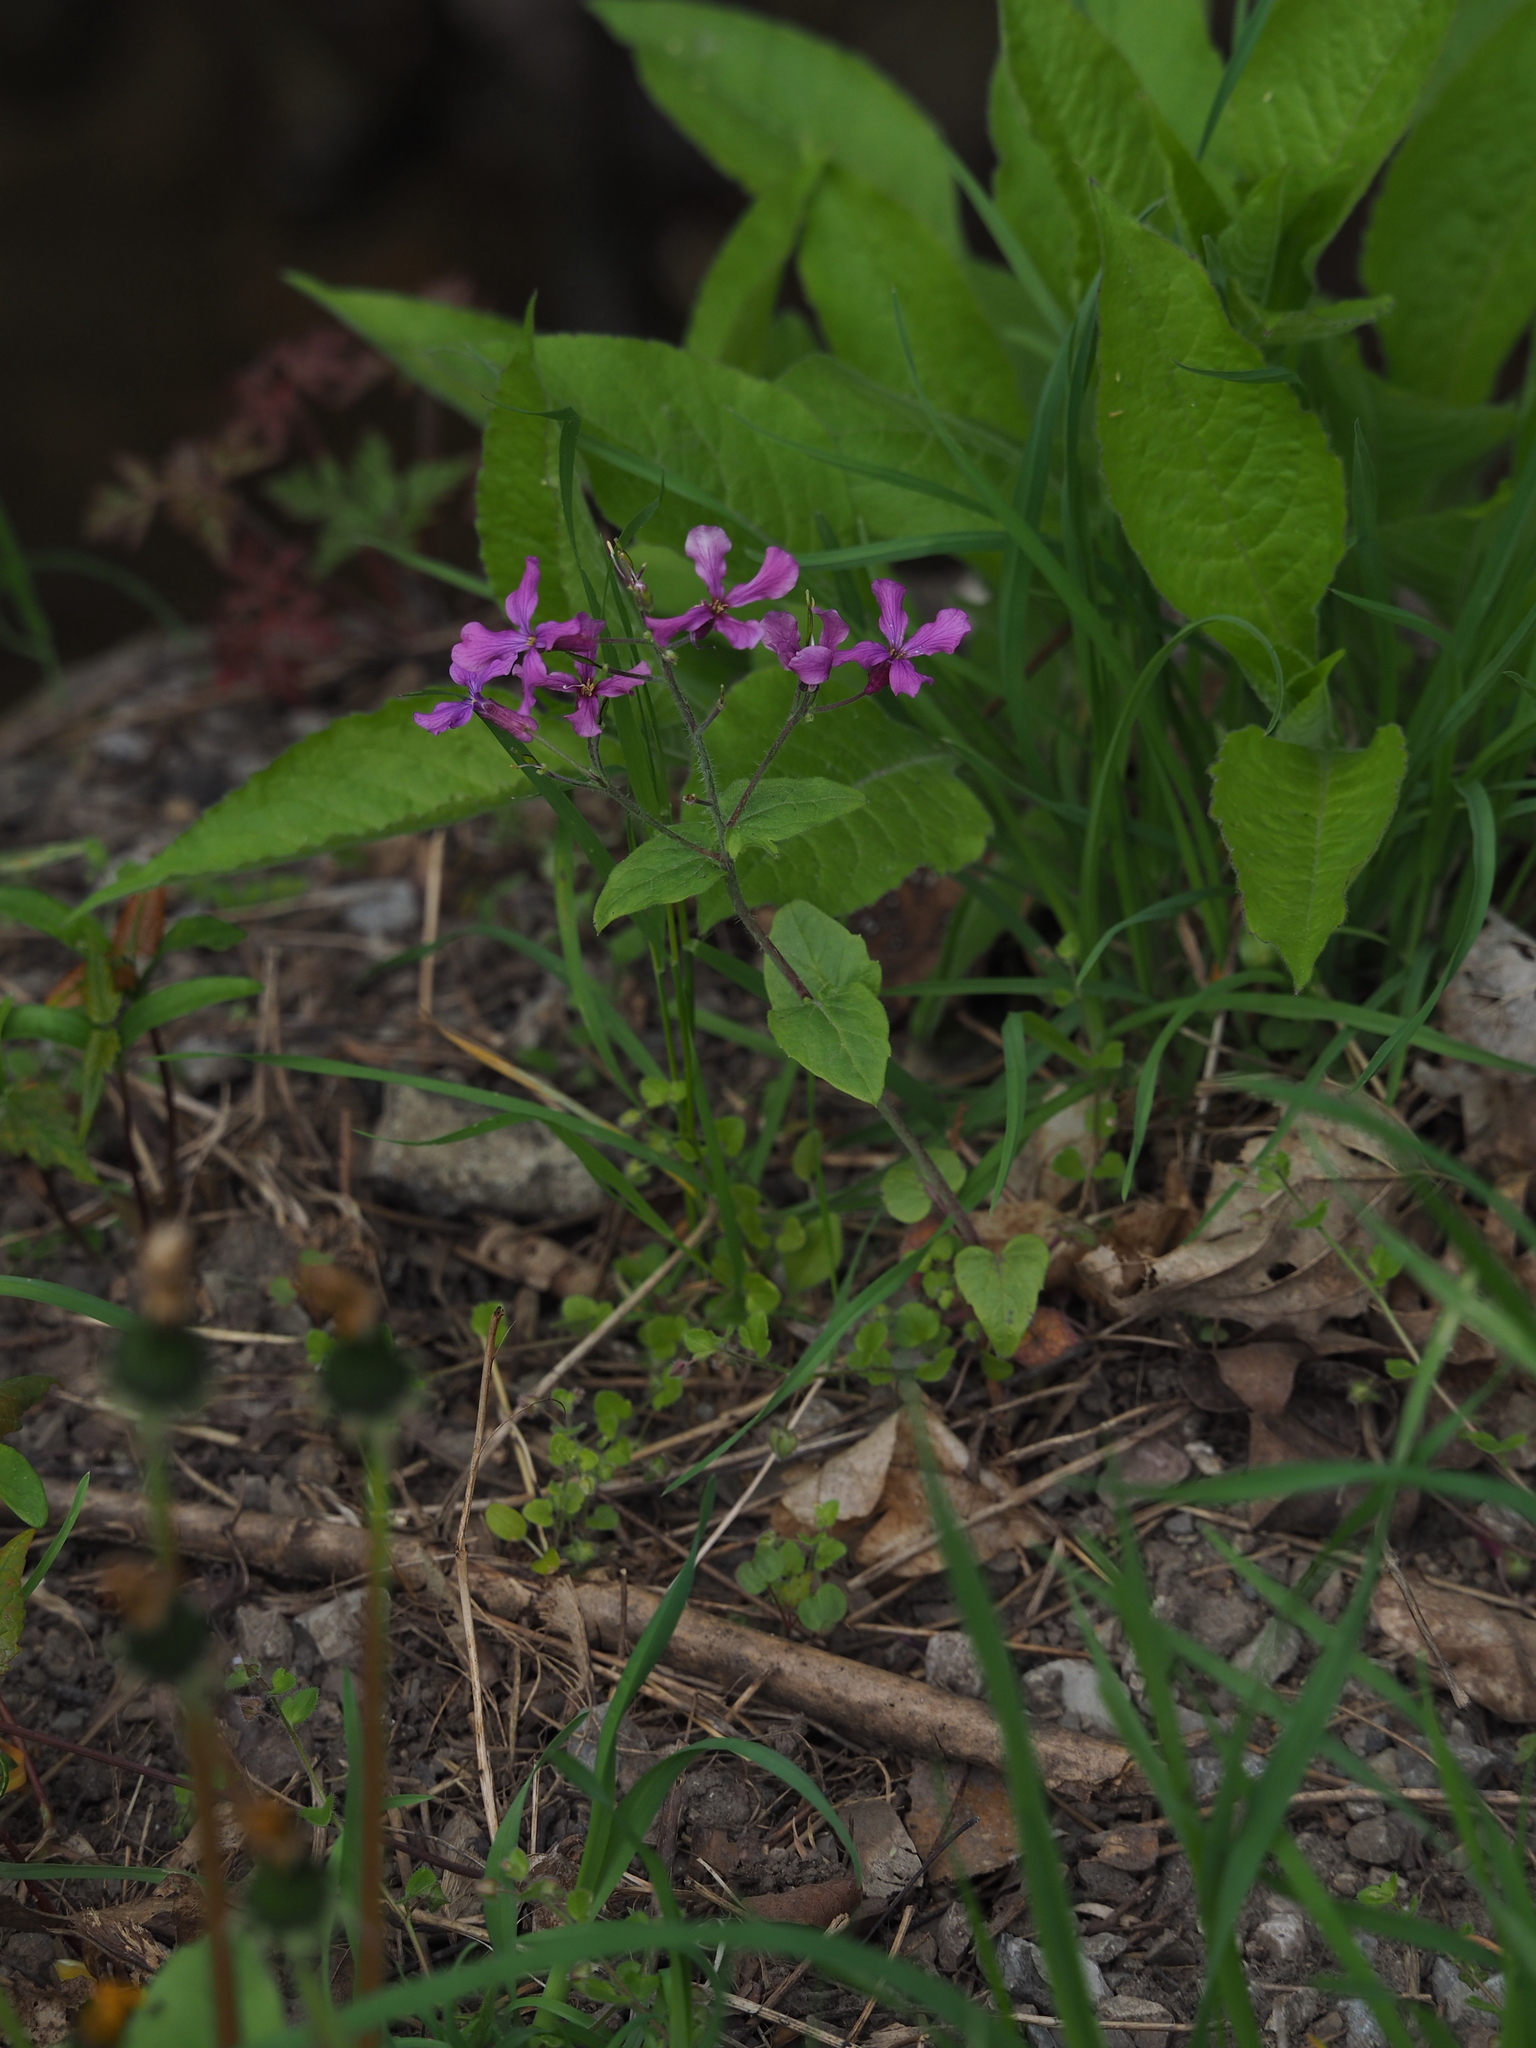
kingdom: Plantae
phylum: Tracheophyta
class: Magnoliopsida
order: Brassicales
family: Brassicaceae
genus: Lunaria
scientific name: Lunaria annua
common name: Honesty
